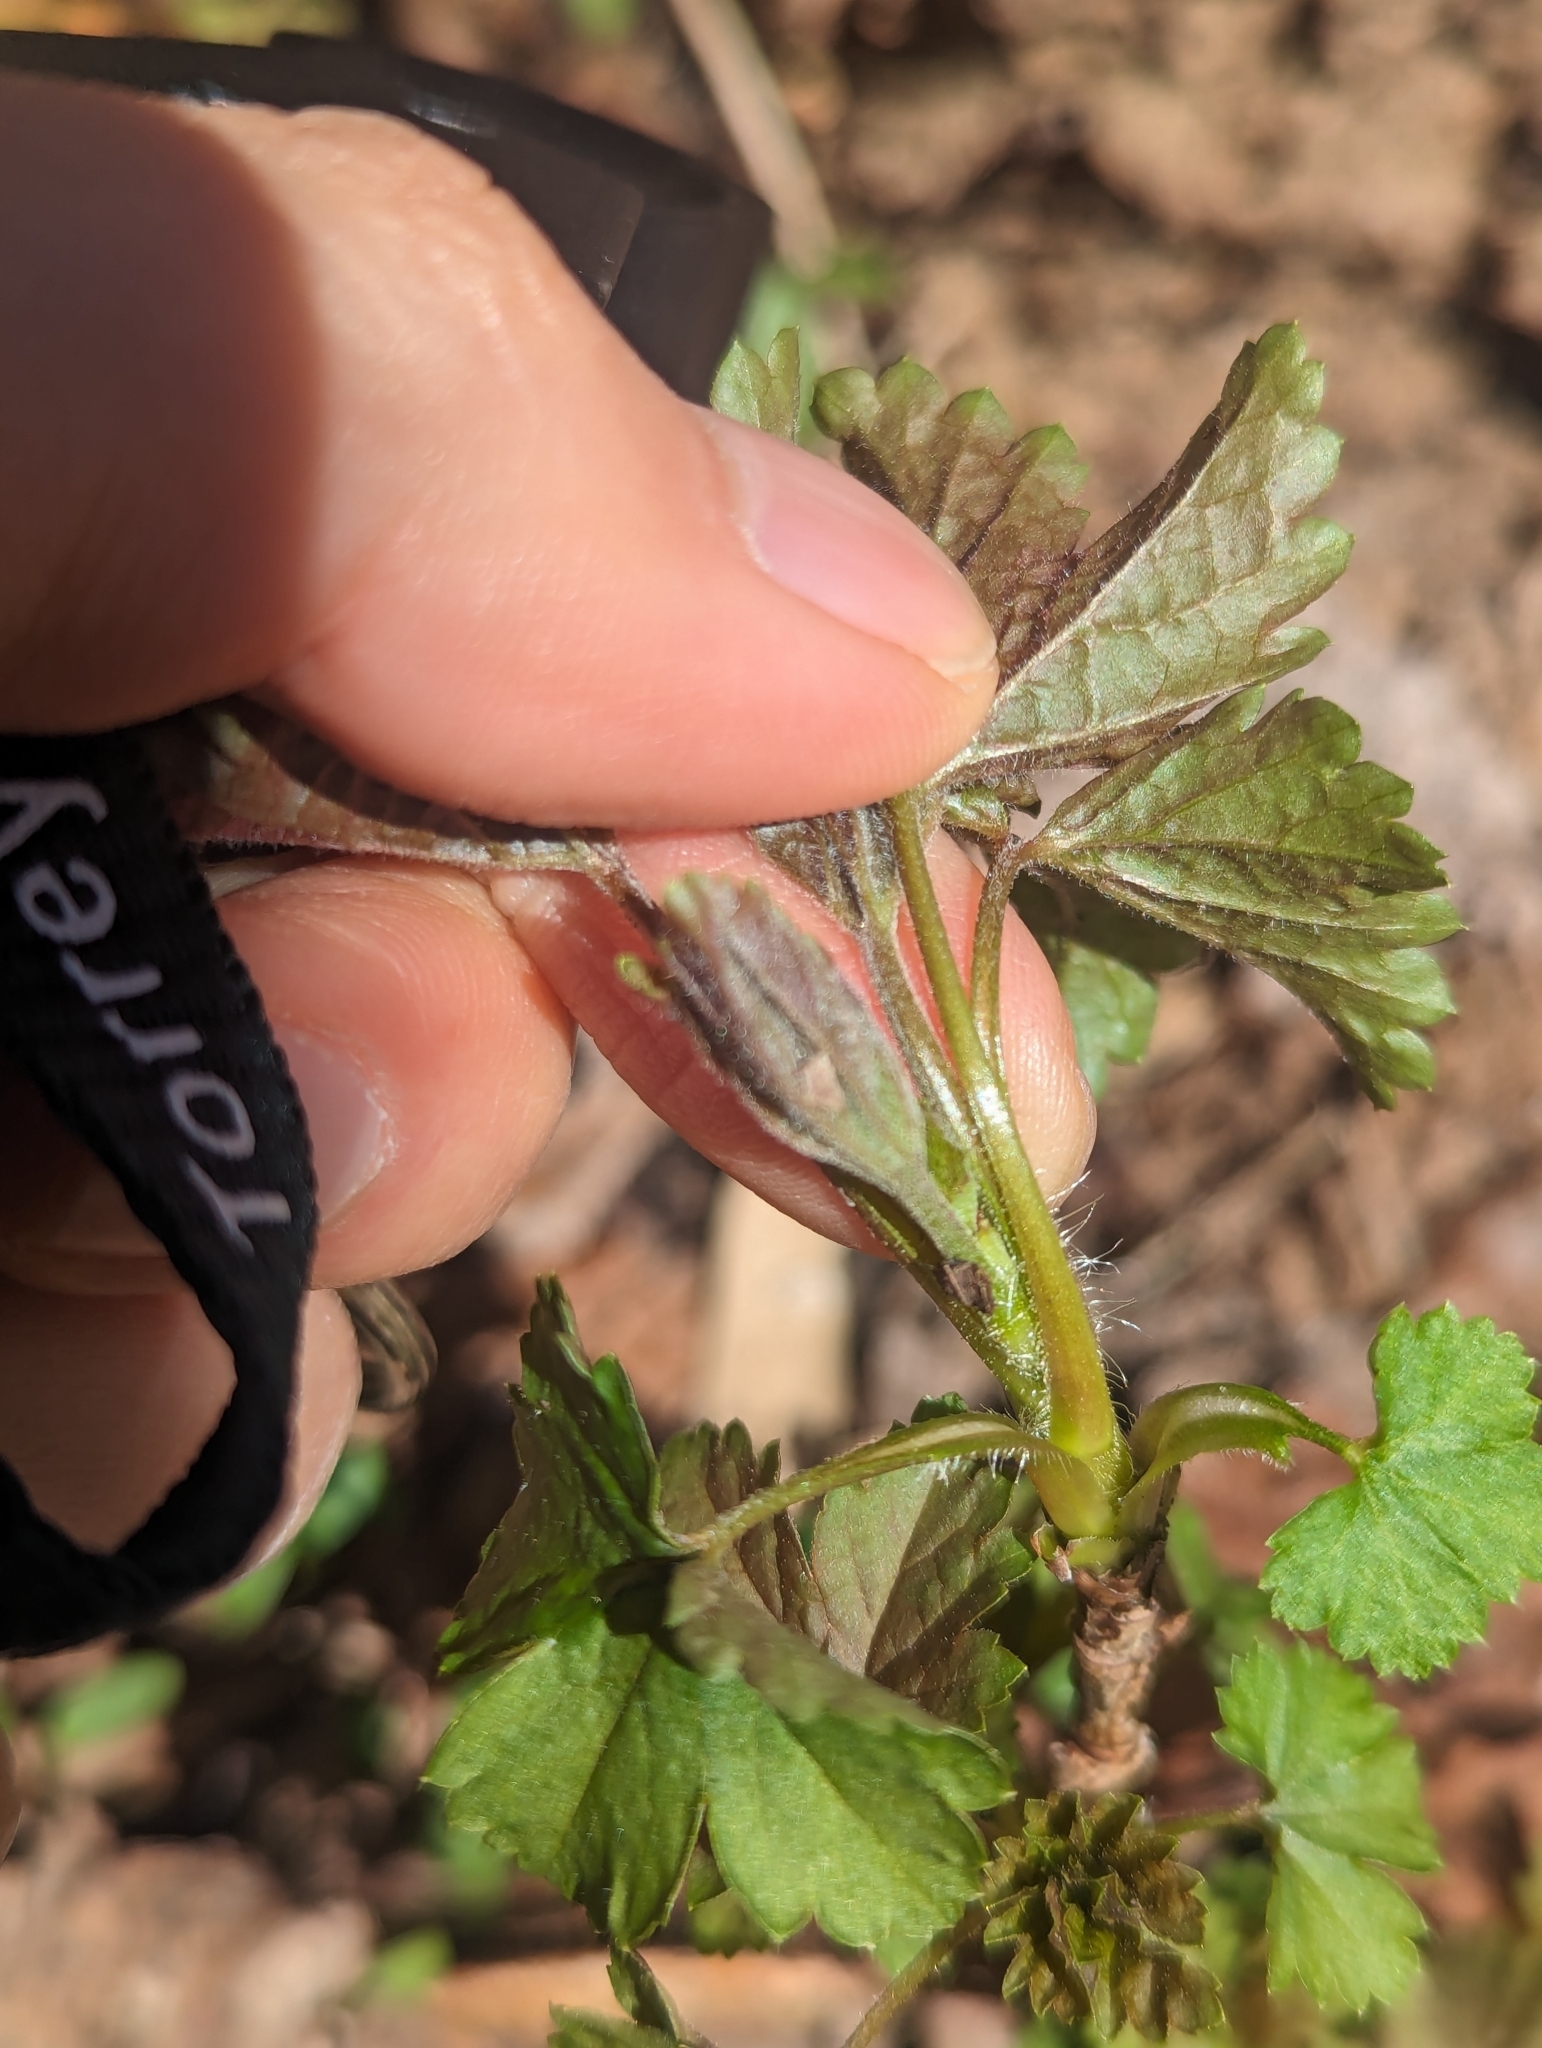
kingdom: Plantae
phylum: Tracheophyta
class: Magnoliopsida
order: Saxifragales
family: Grossulariaceae
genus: Ribes
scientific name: Ribes rubrum
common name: Red currant
